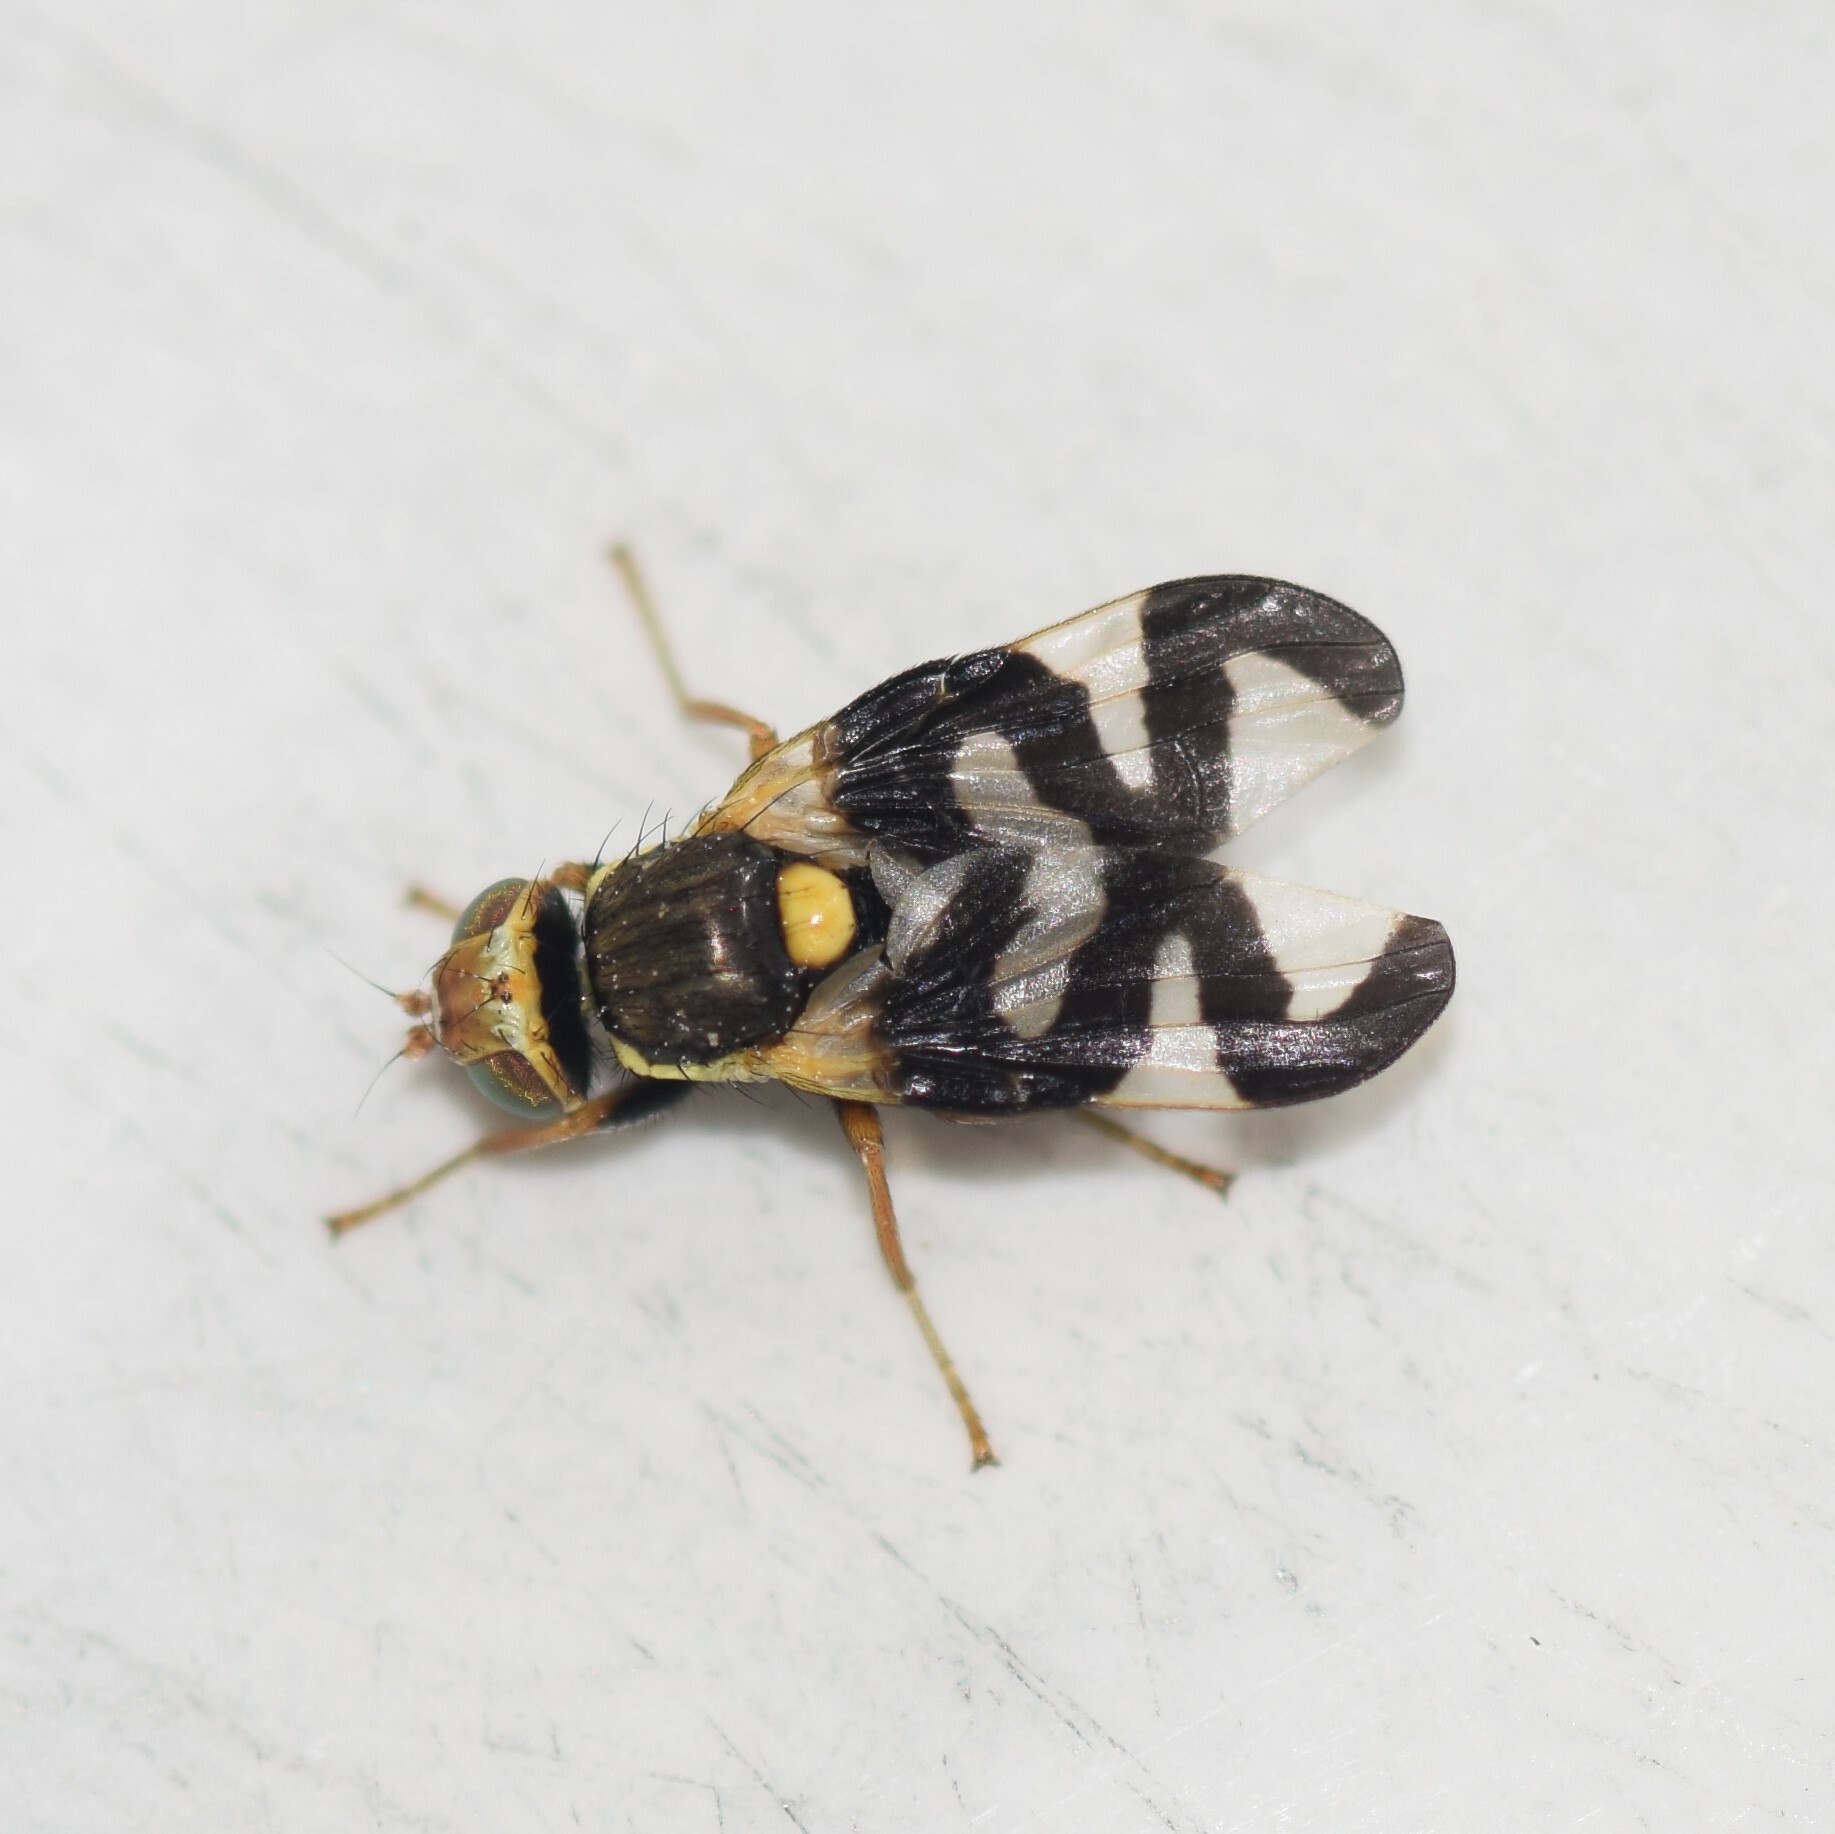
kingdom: Animalia
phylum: Arthropoda
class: Insecta
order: Diptera
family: Tephritidae
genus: Urophora
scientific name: Urophora cardui
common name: Fruit fly
